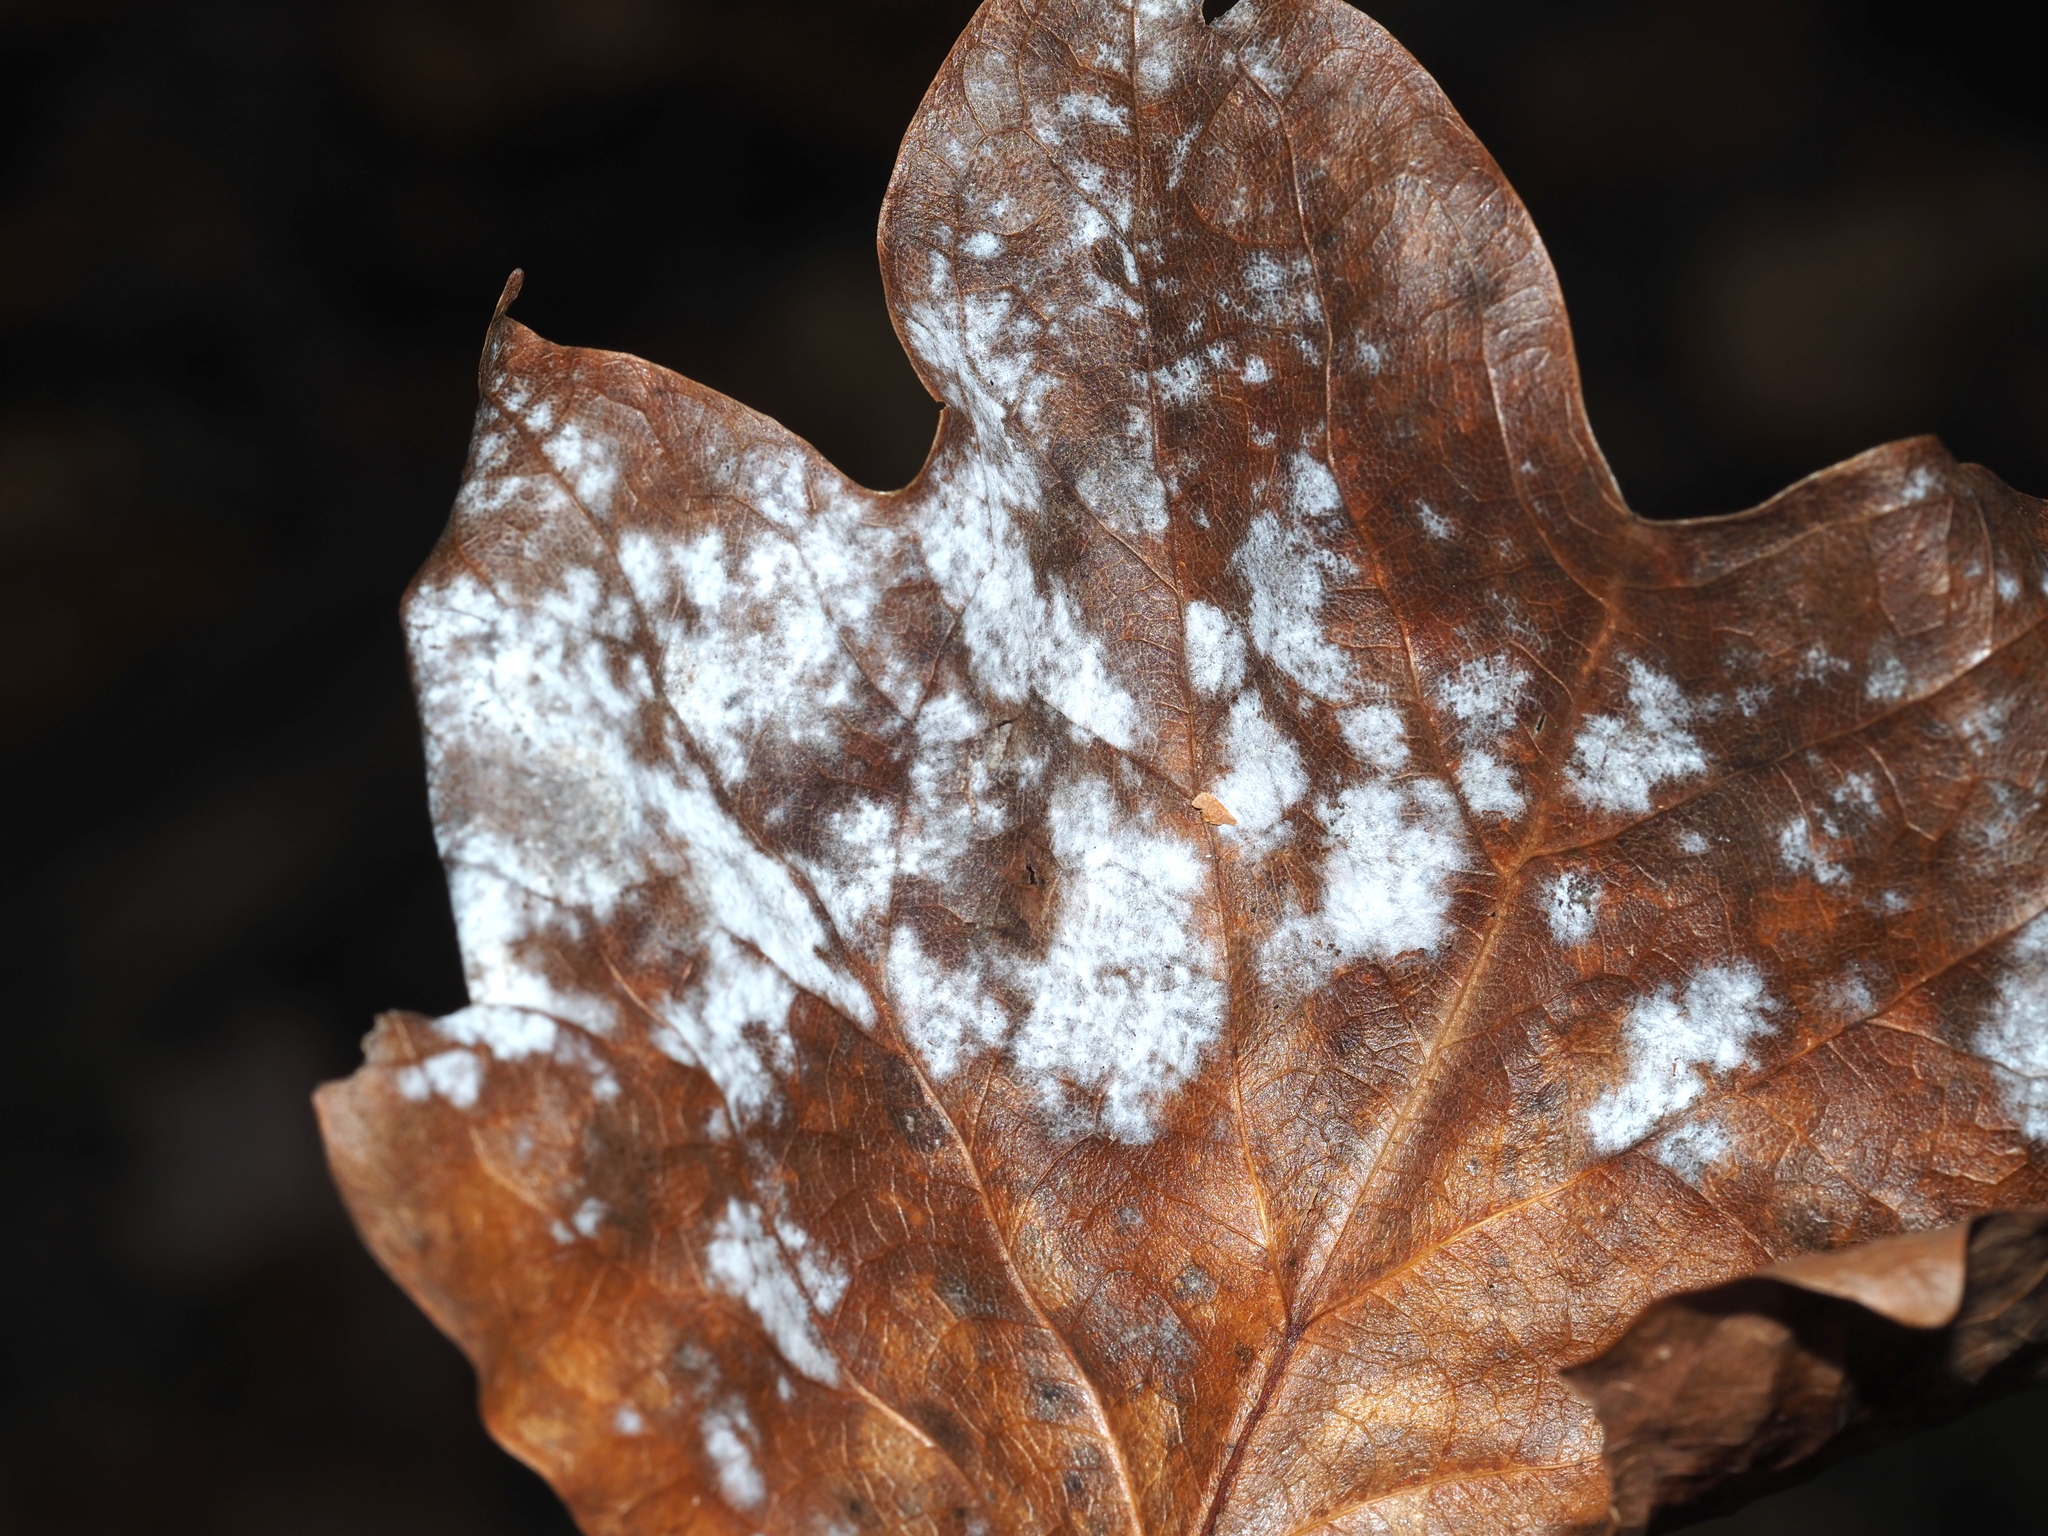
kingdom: Fungi
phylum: Ascomycota
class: Leotiomycetes
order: Helotiales
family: Erysiphaceae
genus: Erysiphe
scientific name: Erysiphe liriodendri
